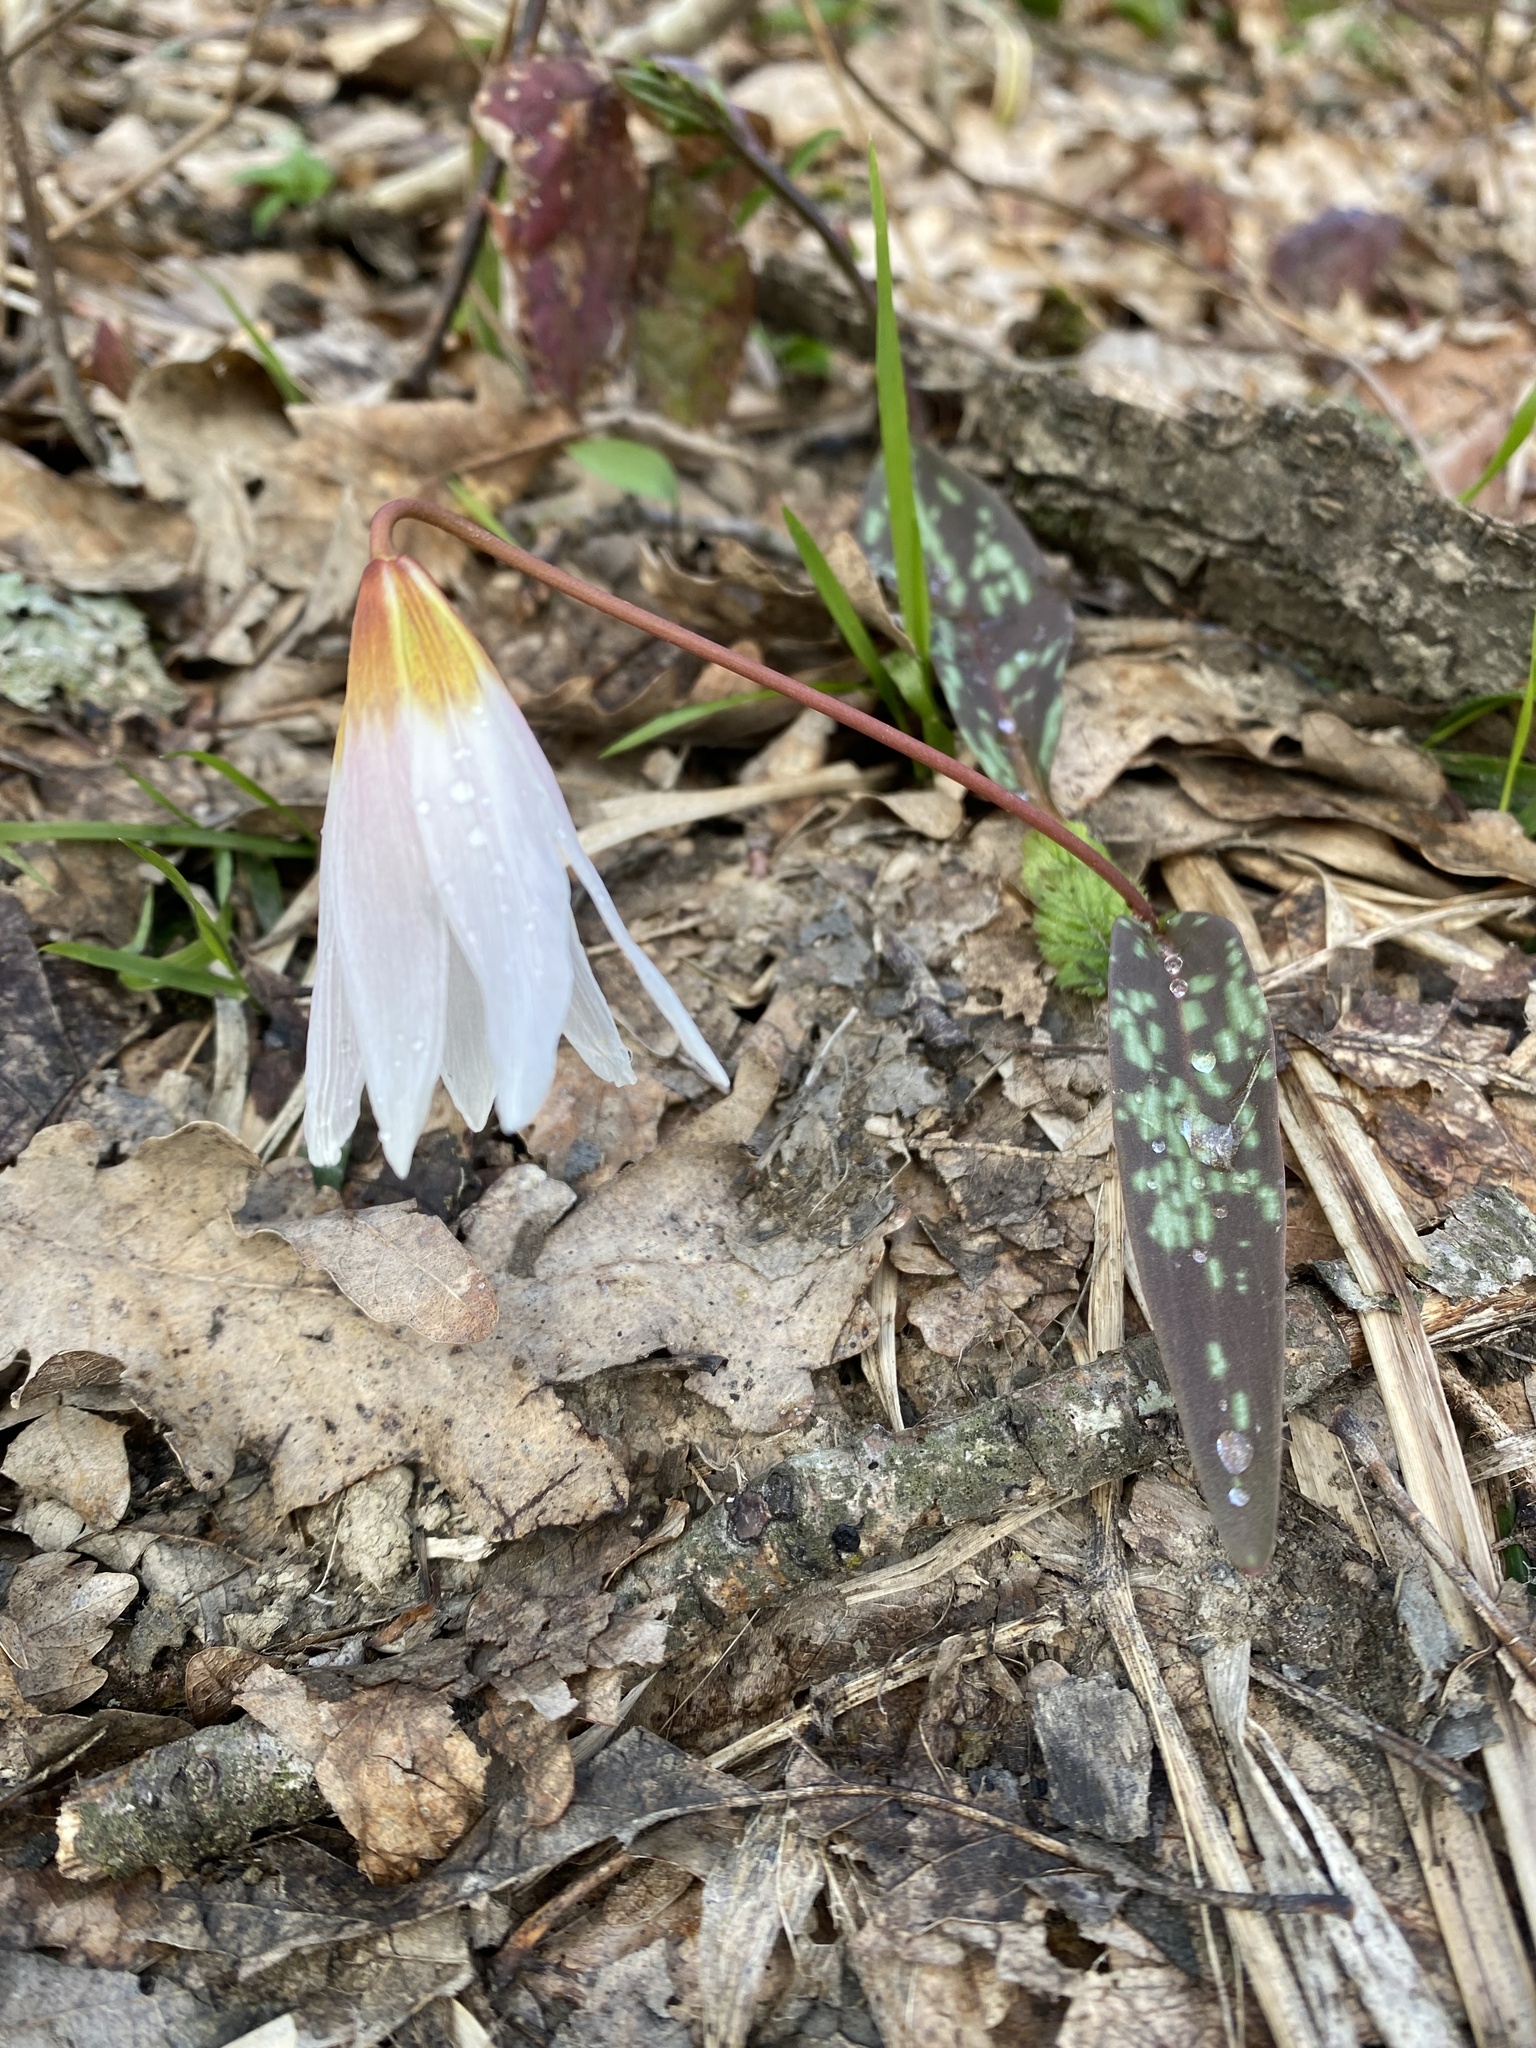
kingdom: Plantae
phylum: Tracheophyta
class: Liliopsida
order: Liliales
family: Liliaceae
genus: Erythronium
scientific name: Erythronium caucasicum
